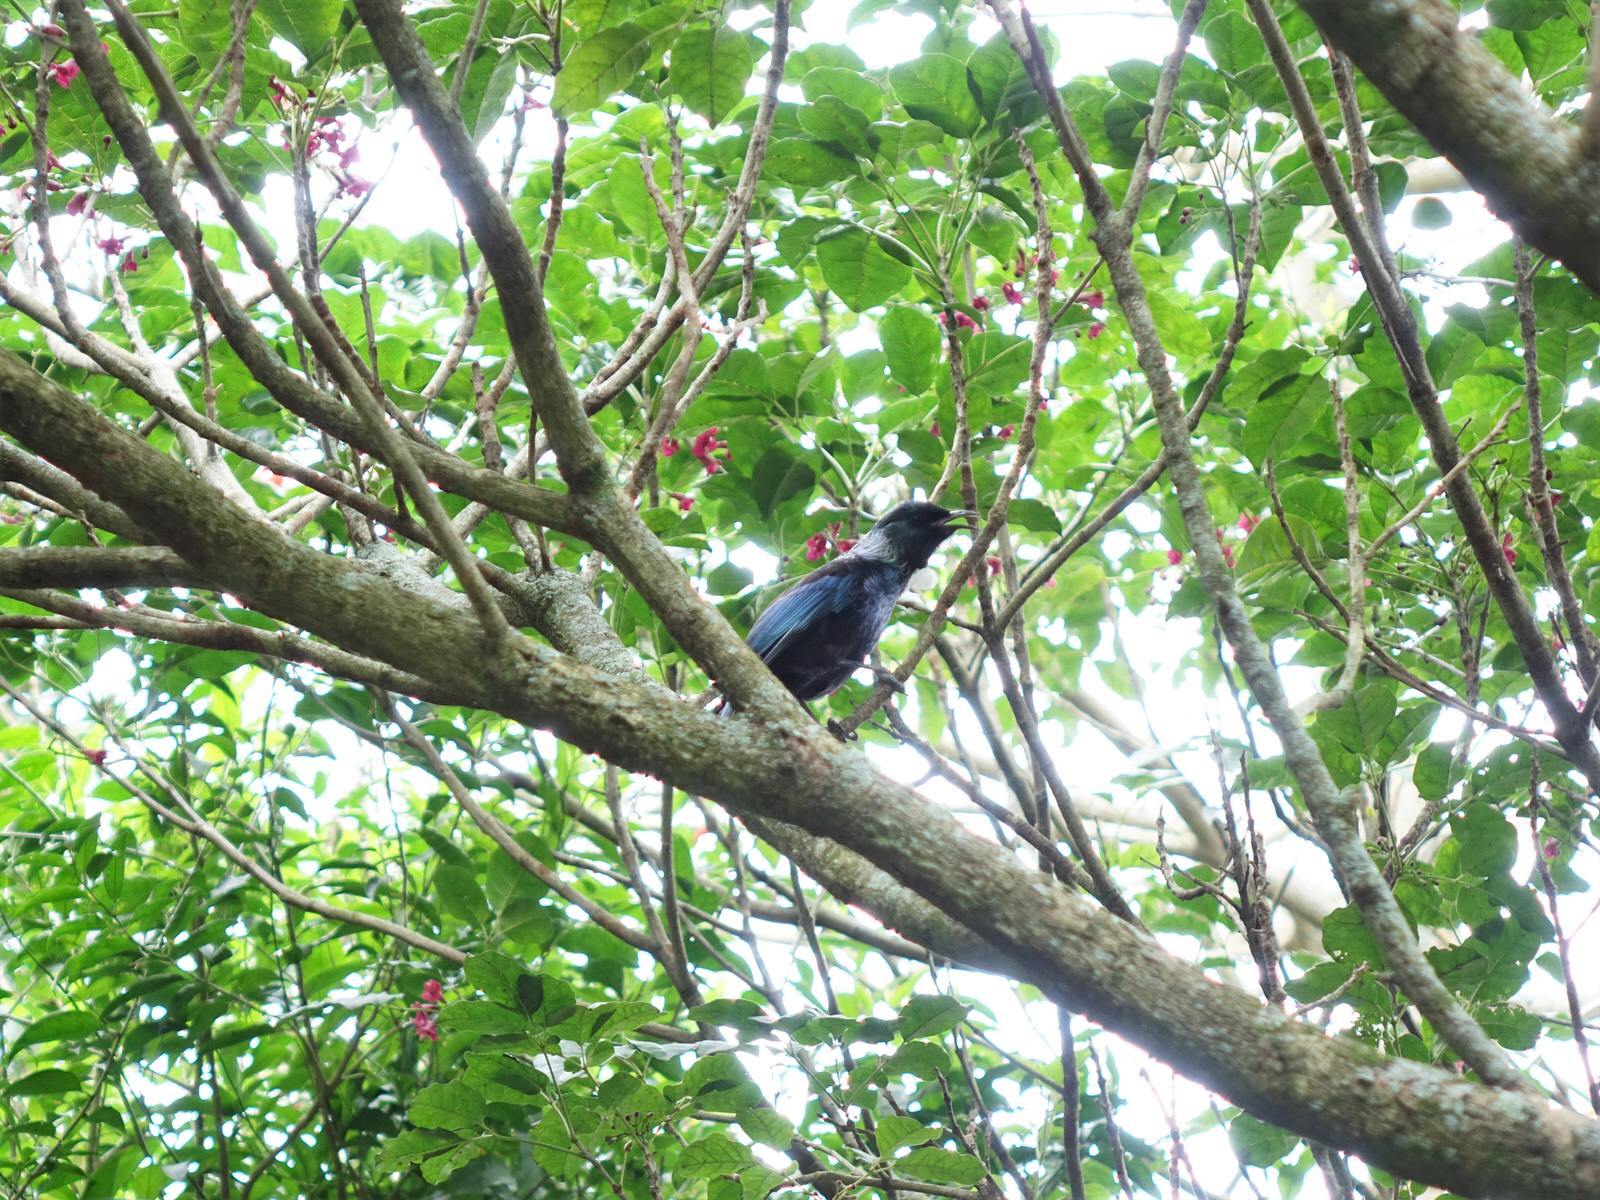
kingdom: Animalia
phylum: Chordata
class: Aves
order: Passeriformes
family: Meliphagidae
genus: Prosthemadera
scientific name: Prosthemadera novaeseelandiae
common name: Tui
